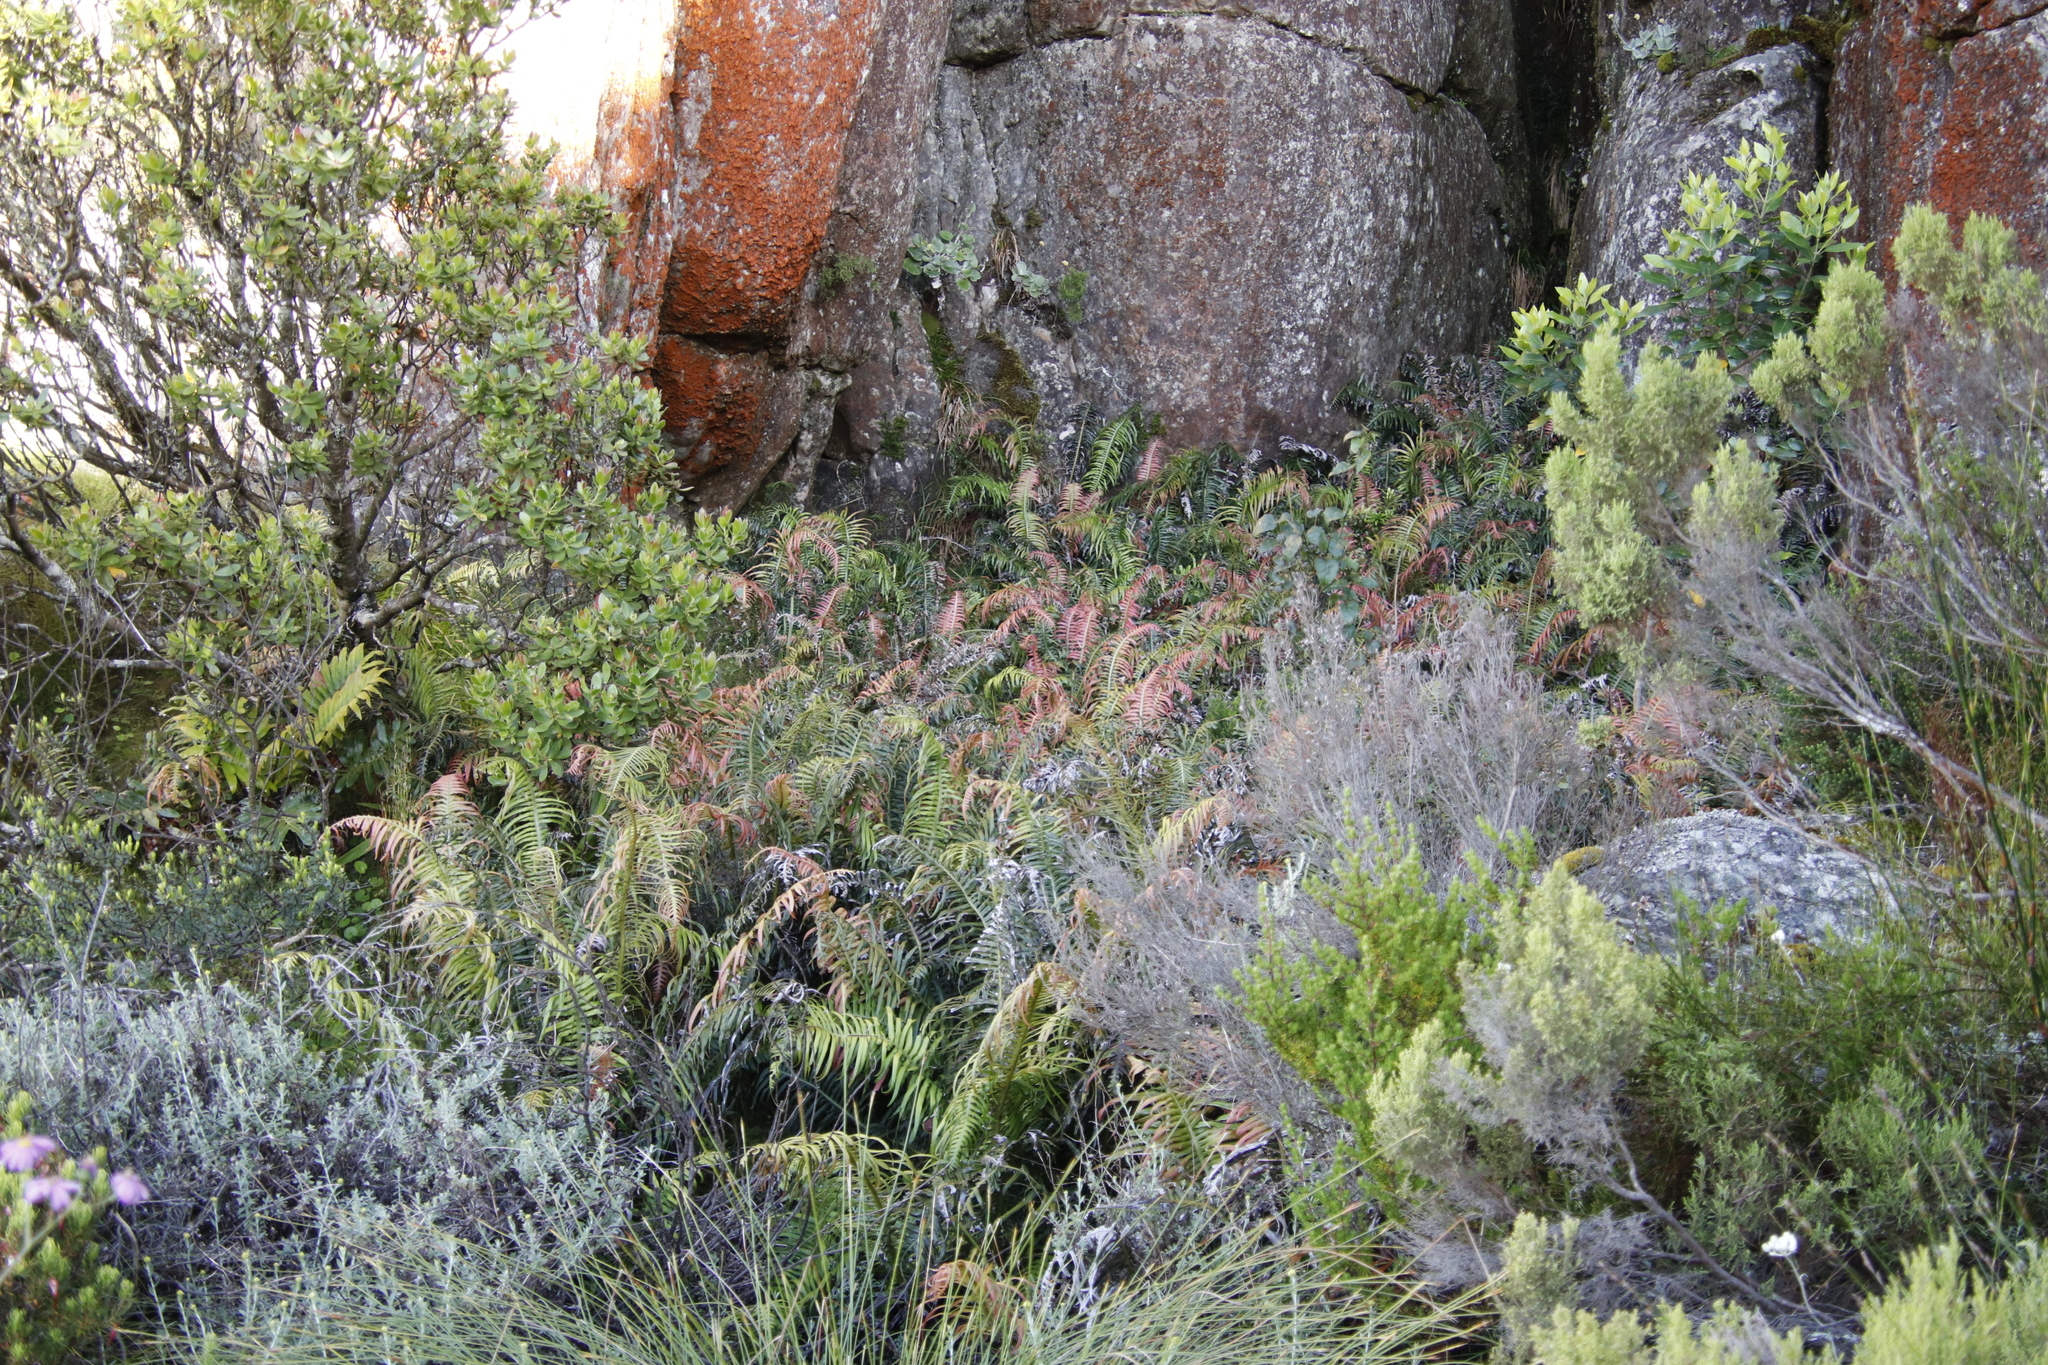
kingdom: Plantae
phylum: Tracheophyta
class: Polypodiopsida
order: Polypodiales
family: Blechnaceae
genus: Lomaridium
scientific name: Lomaridium attenuatum
